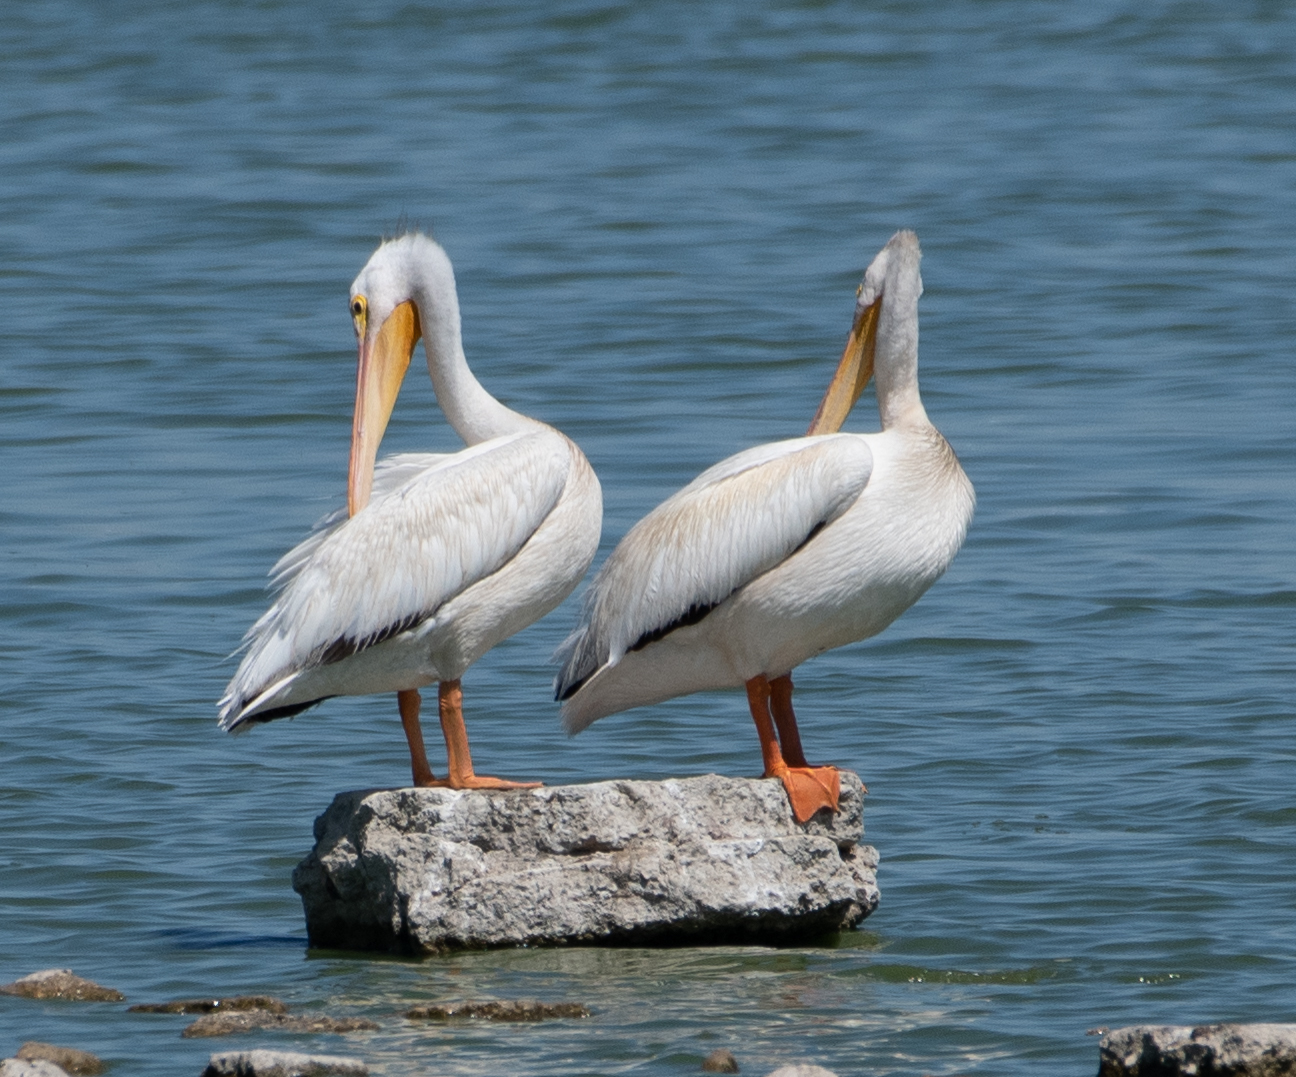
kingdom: Animalia
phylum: Chordata
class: Aves
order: Pelecaniformes
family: Pelecanidae
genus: Pelecanus
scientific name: Pelecanus erythrorhynchos
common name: American white pelican
